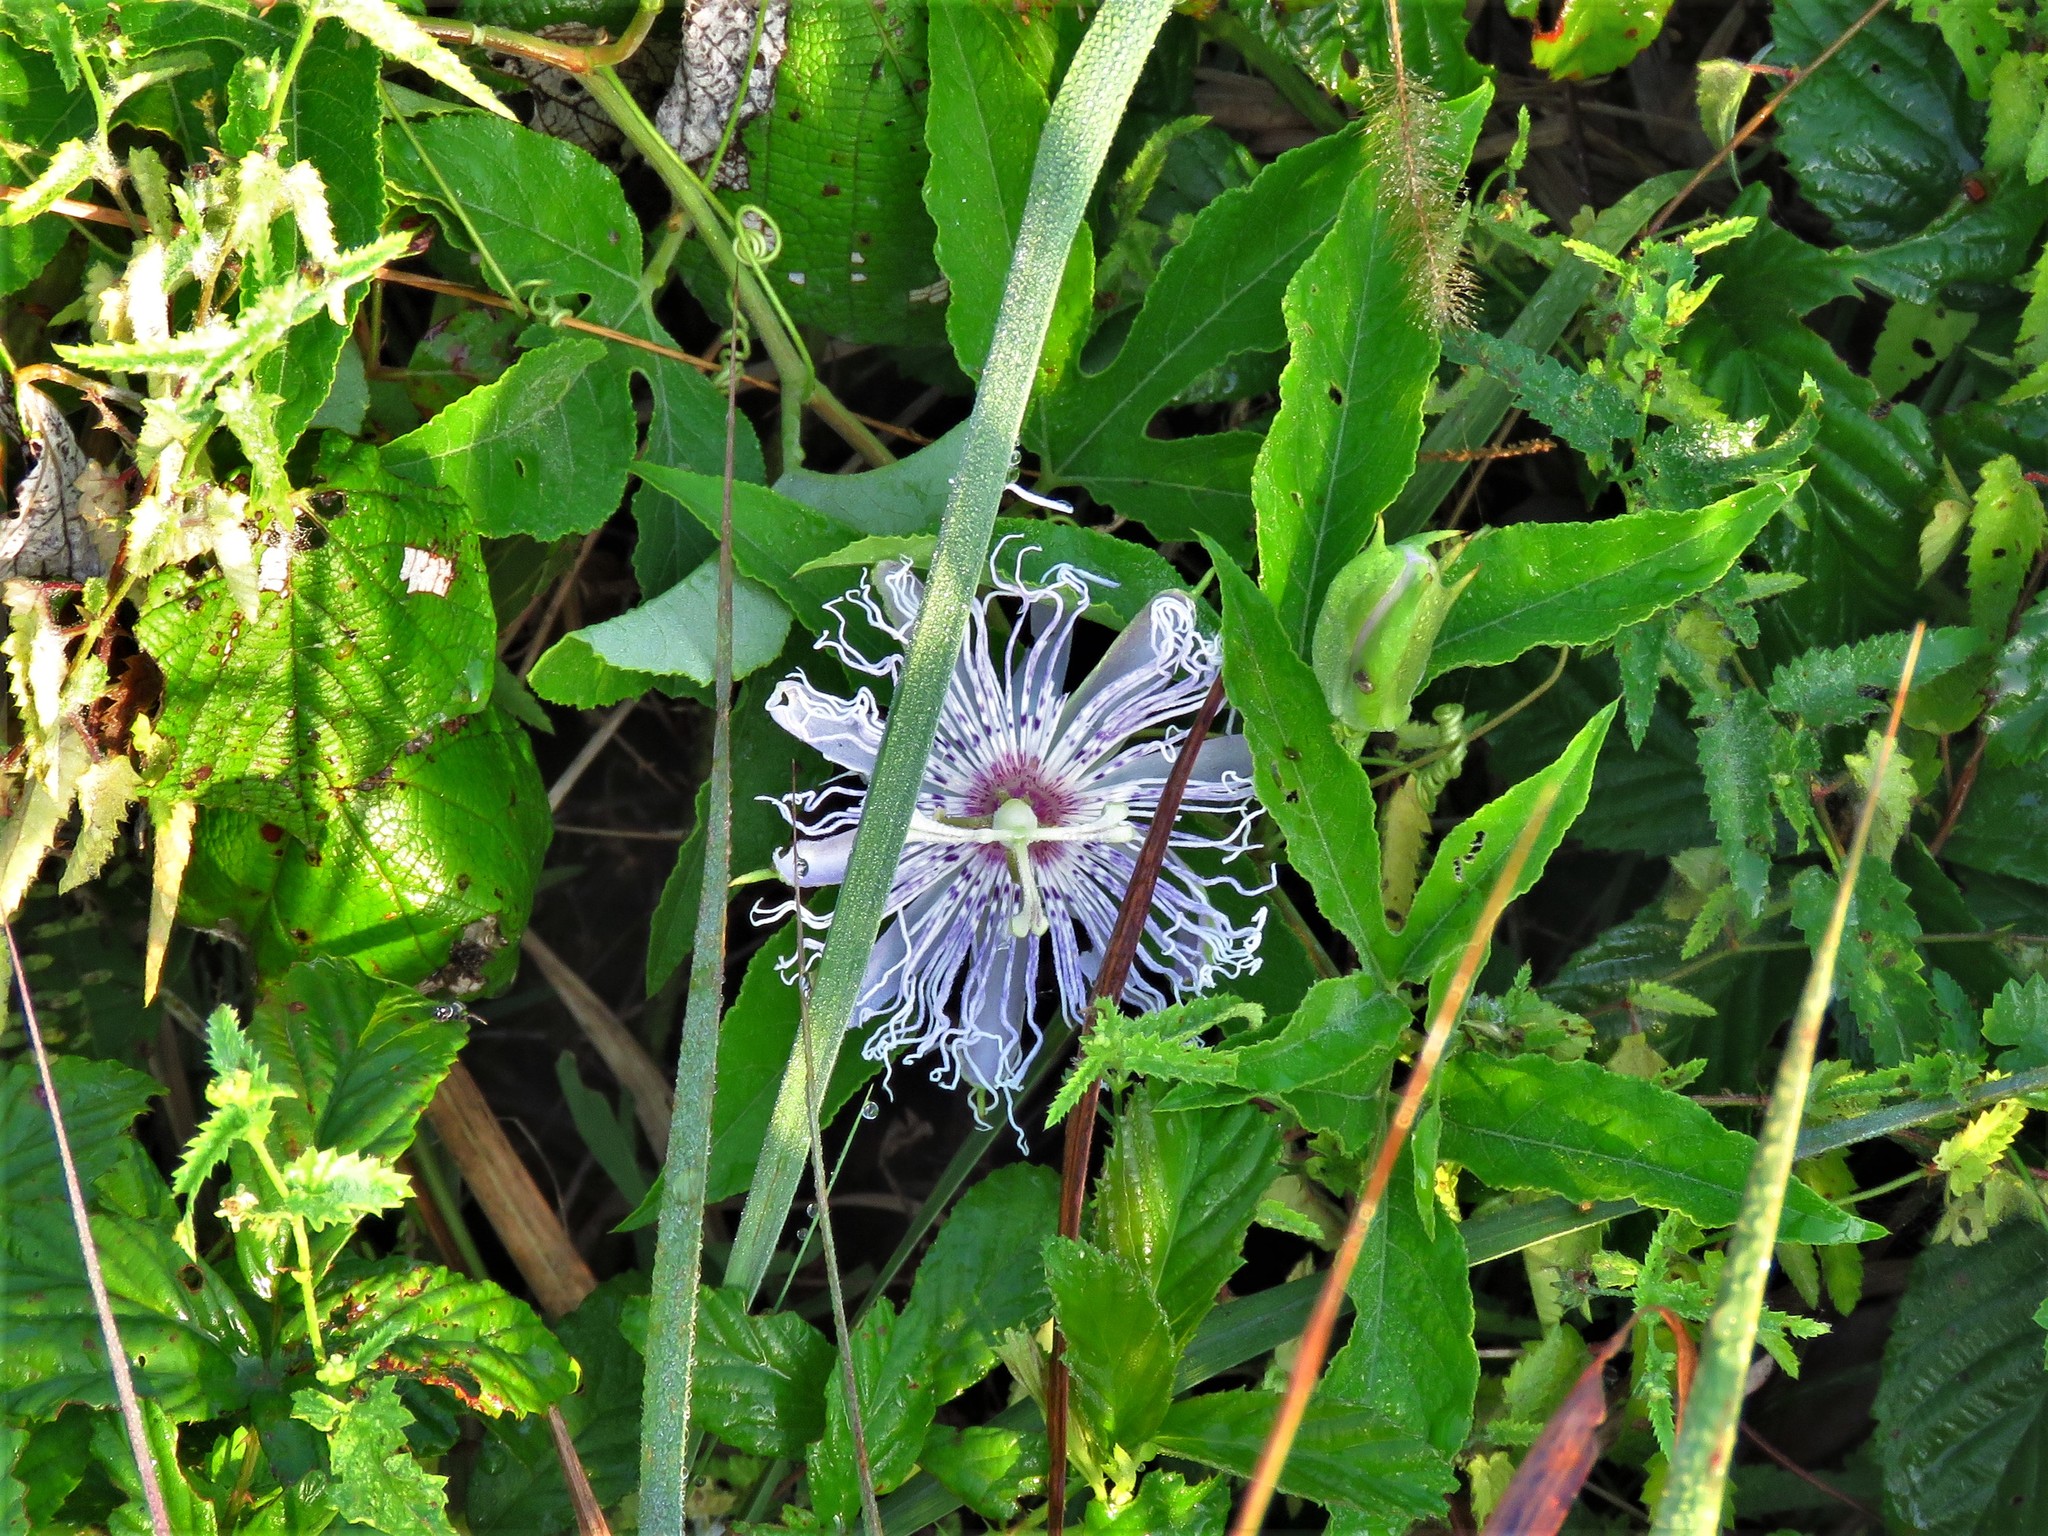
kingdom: Plantae
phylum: Tracheophyta
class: Magnoliopsida
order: Malpighiales
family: Passifloraceae
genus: Passiflora
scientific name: Passiflora incarnata
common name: Apricot-vine
